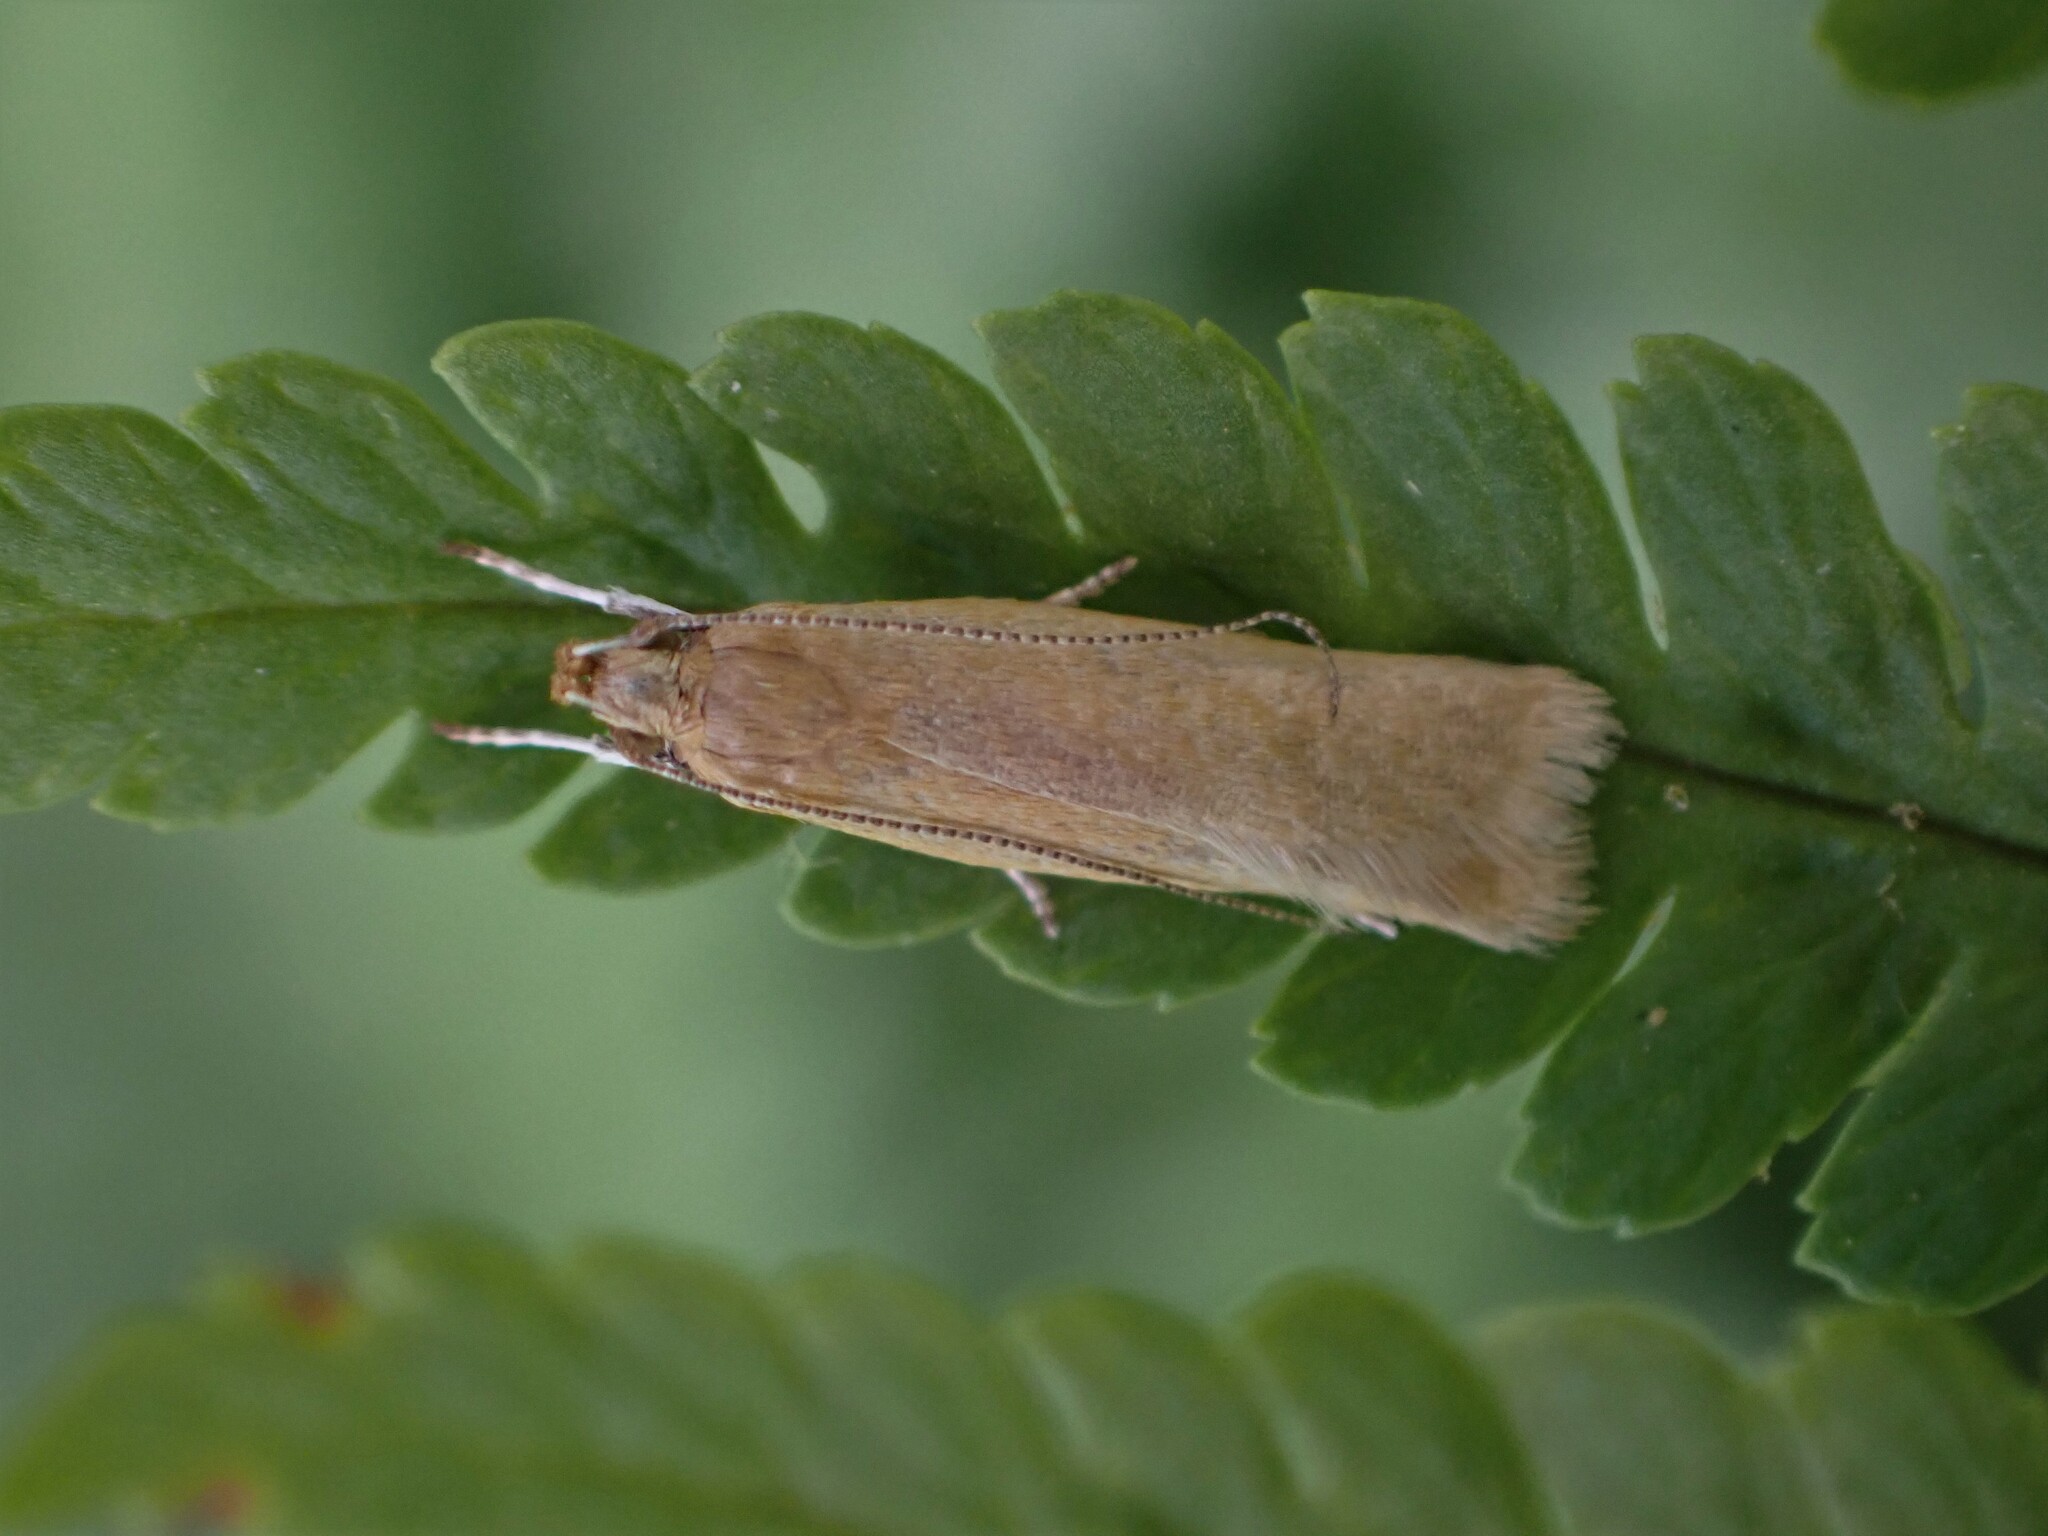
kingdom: Animalia
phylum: Arthropoda
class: Insecta
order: Lepidoptera
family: Oecophoridae
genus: Gymnobathra
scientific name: Gymnobathra parca
